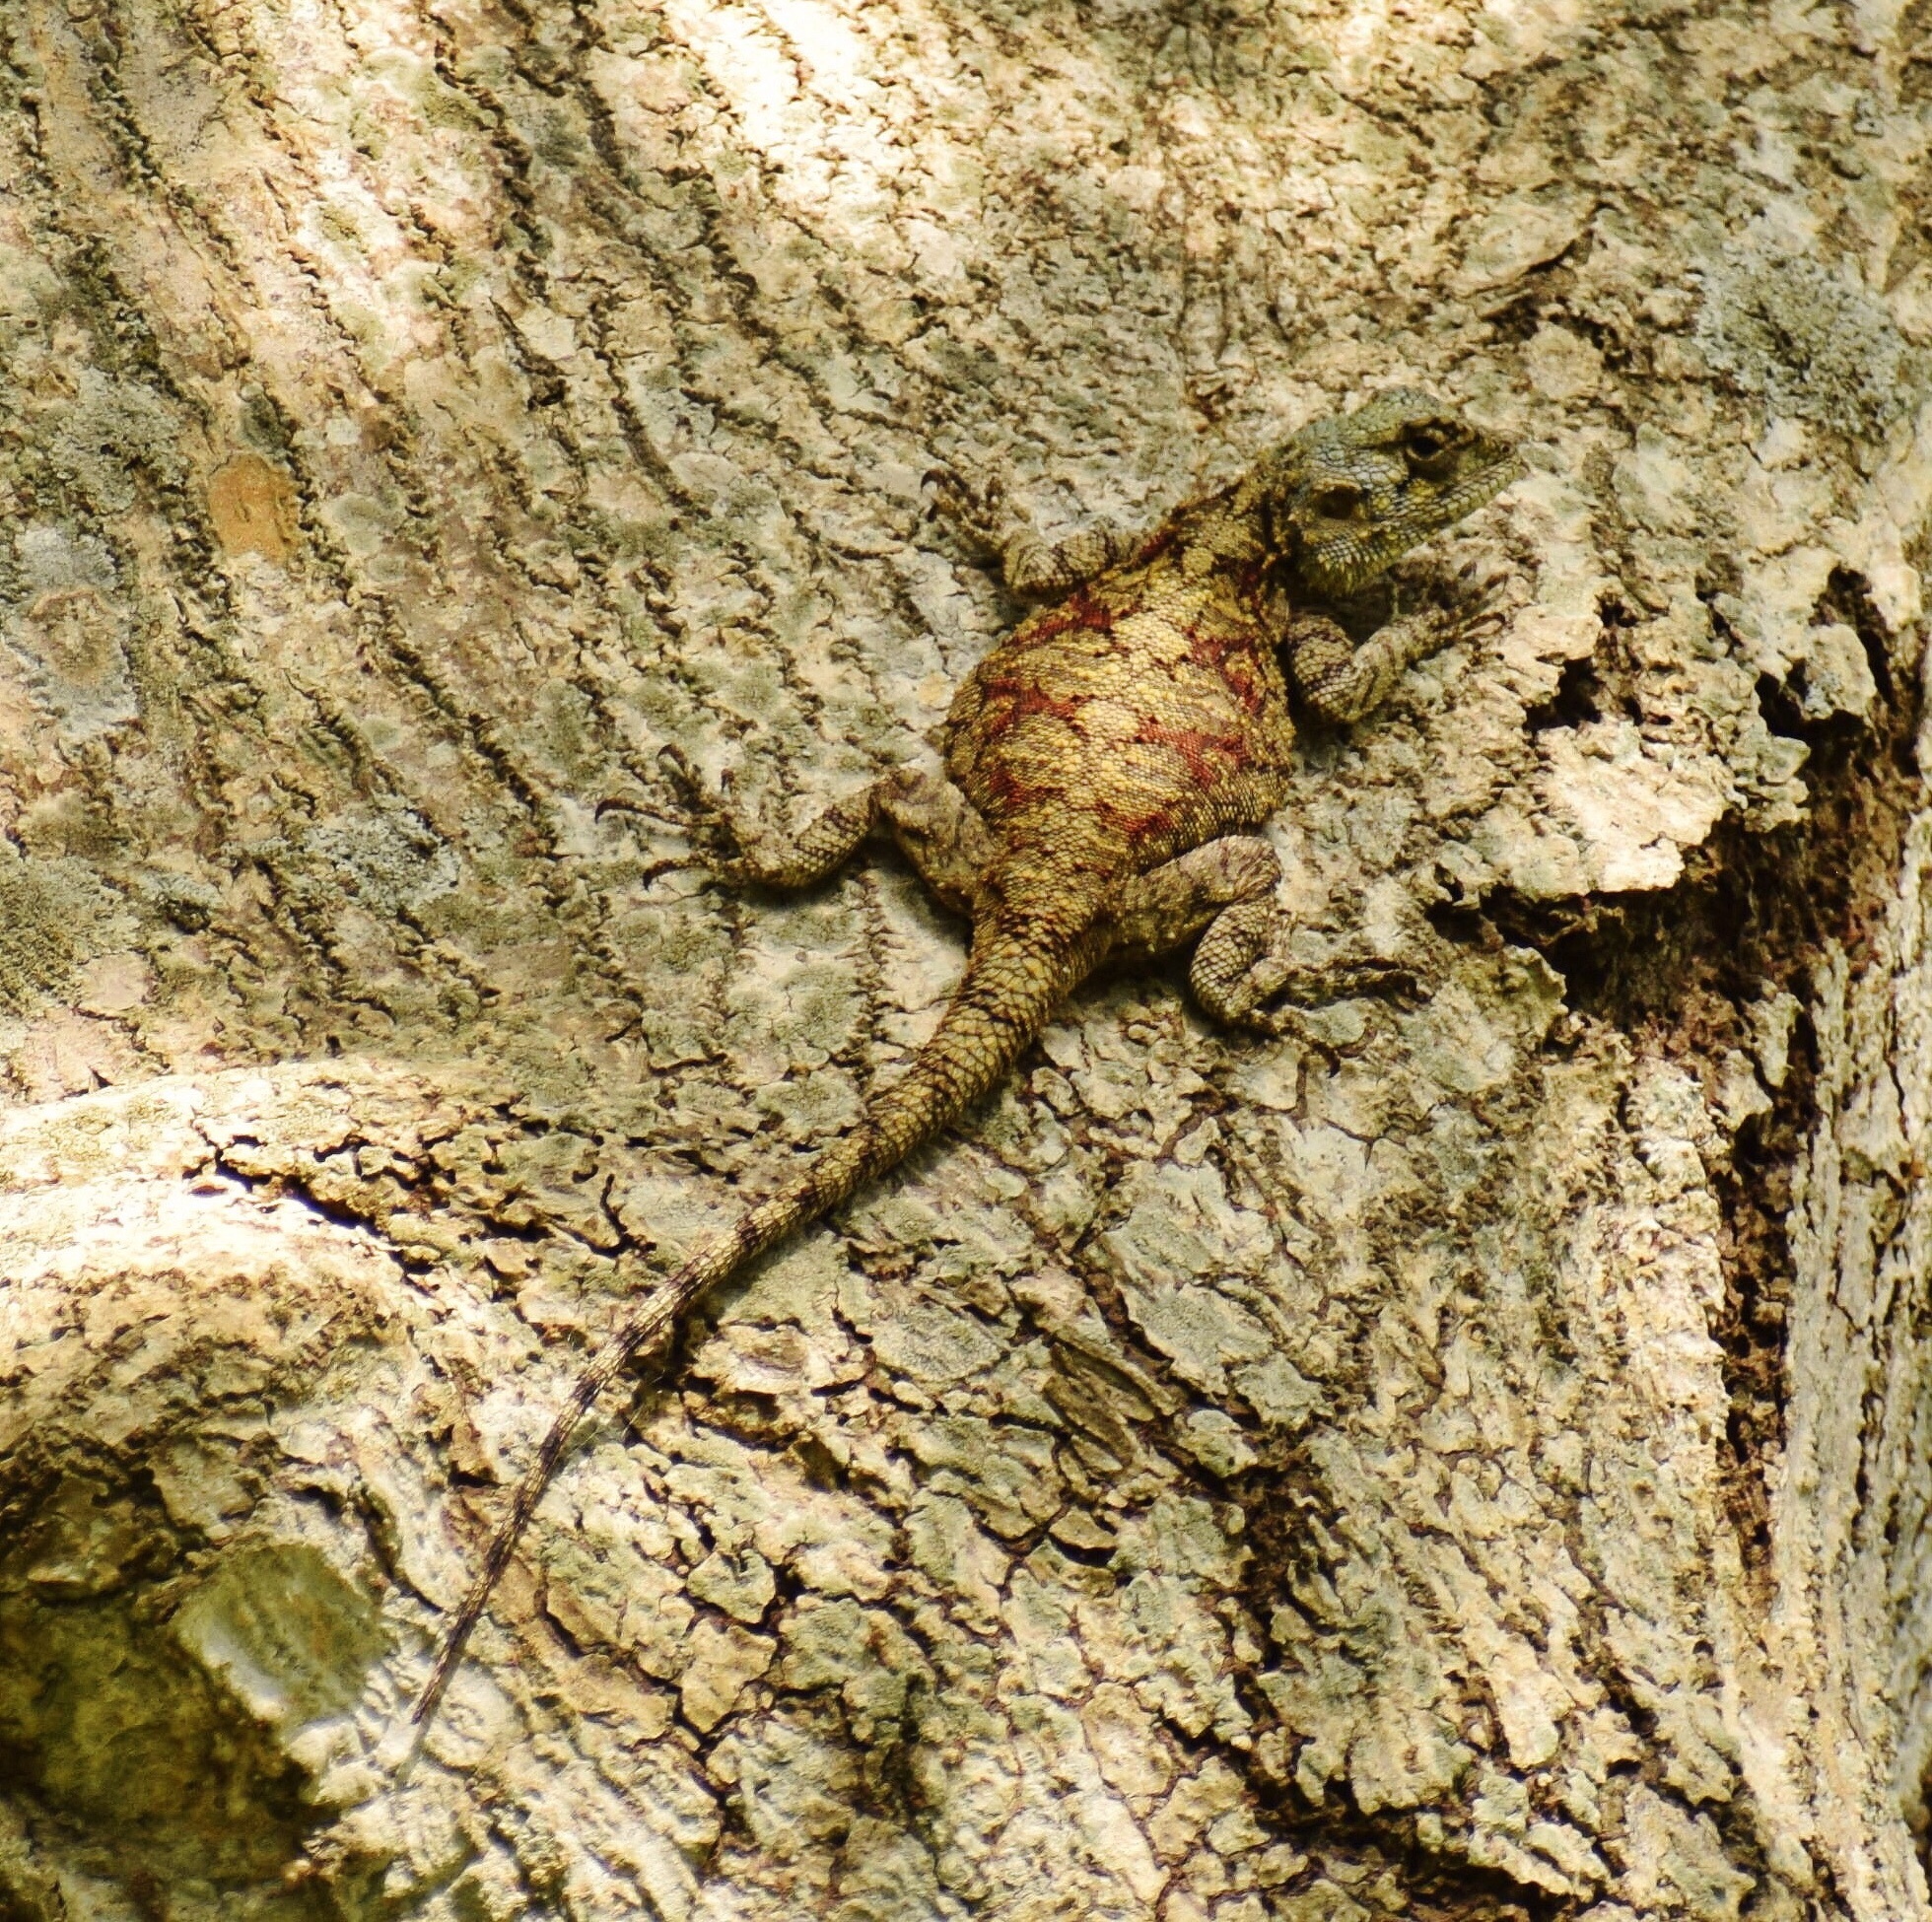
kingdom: Animalia
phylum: Chordata
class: Squamata
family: Agamidae
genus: Acanthocercus
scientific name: Acanthocercus atricollis
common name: Southern tree agama
